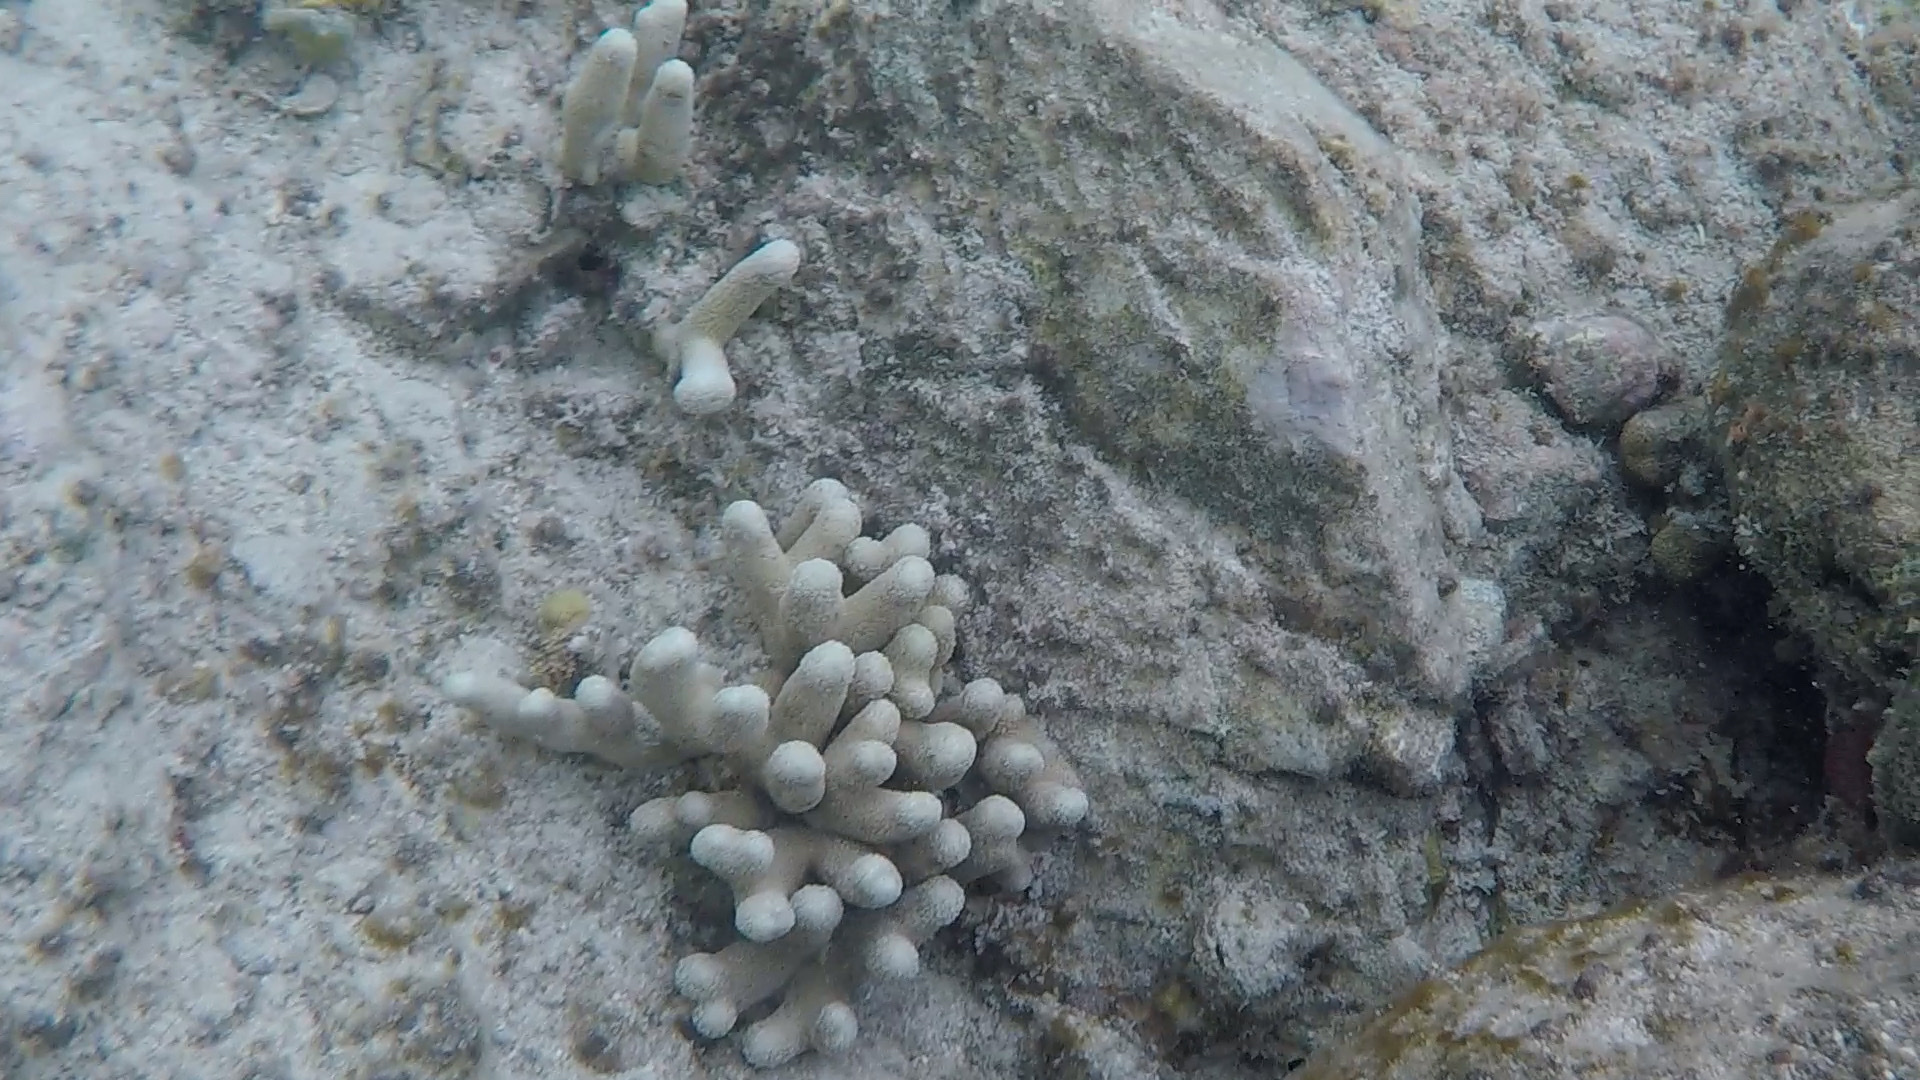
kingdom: Animalia
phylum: Cnidaria
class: Anthozoa
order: Scleractinia
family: Poritidae
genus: Porites
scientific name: Porites porites
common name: Finger coral
